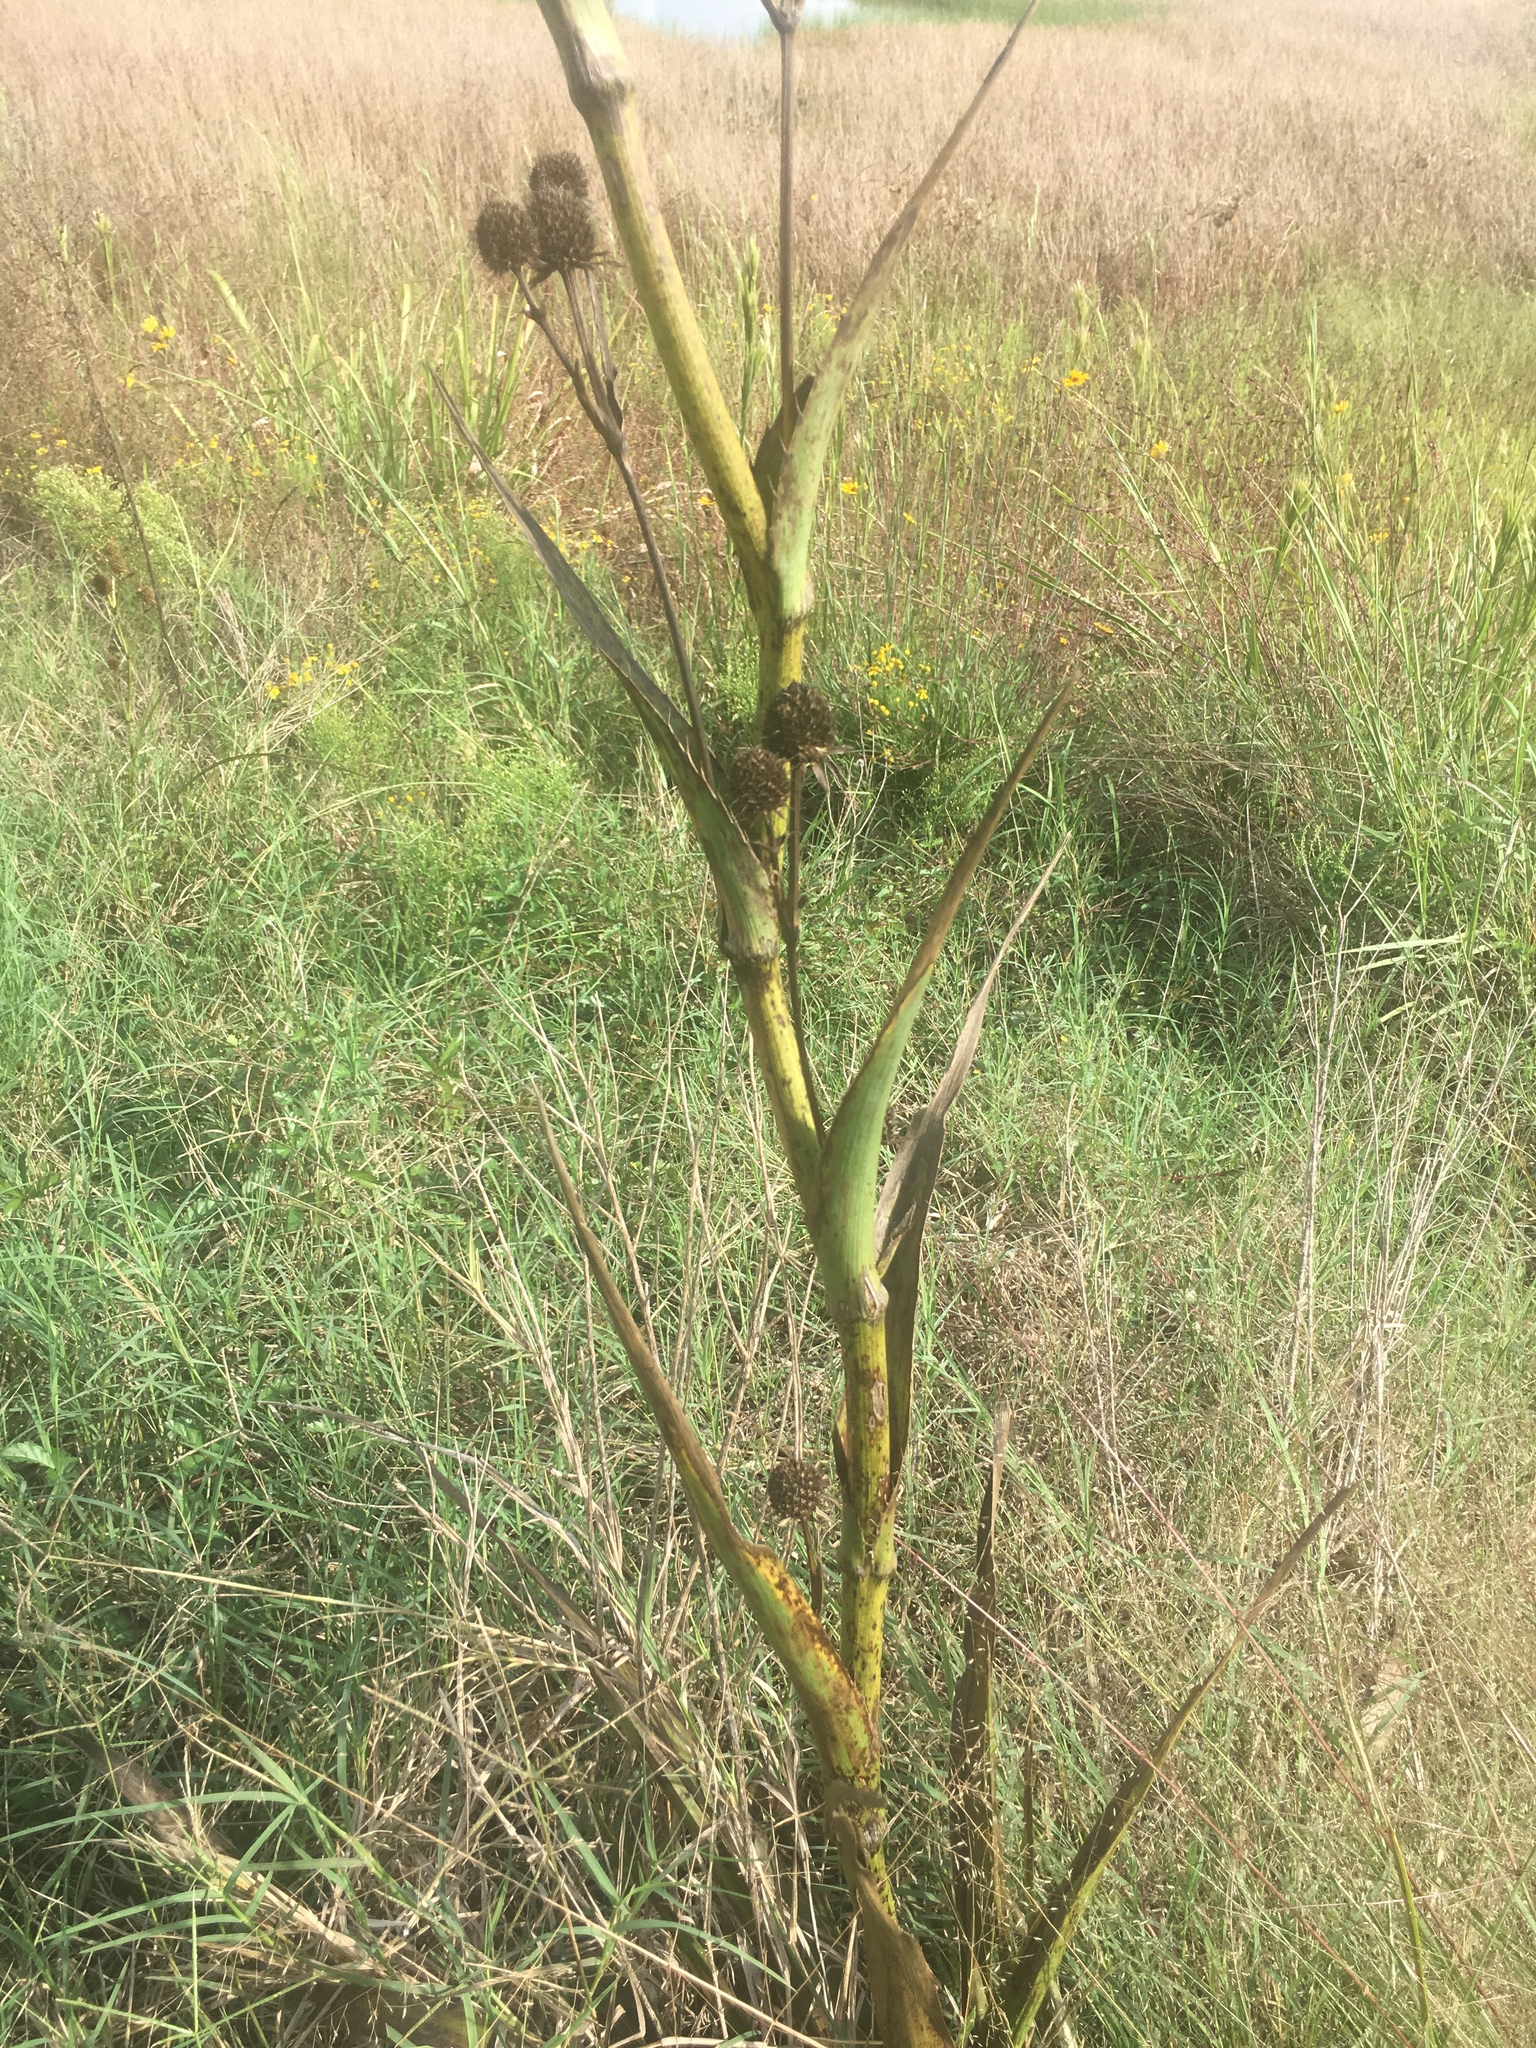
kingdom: Plantae
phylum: Tracheophyta
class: Magnoliopsida
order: Apiales
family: Apiaceae
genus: Eryngium
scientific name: Eryngium yuccifolium
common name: Button eryngo
